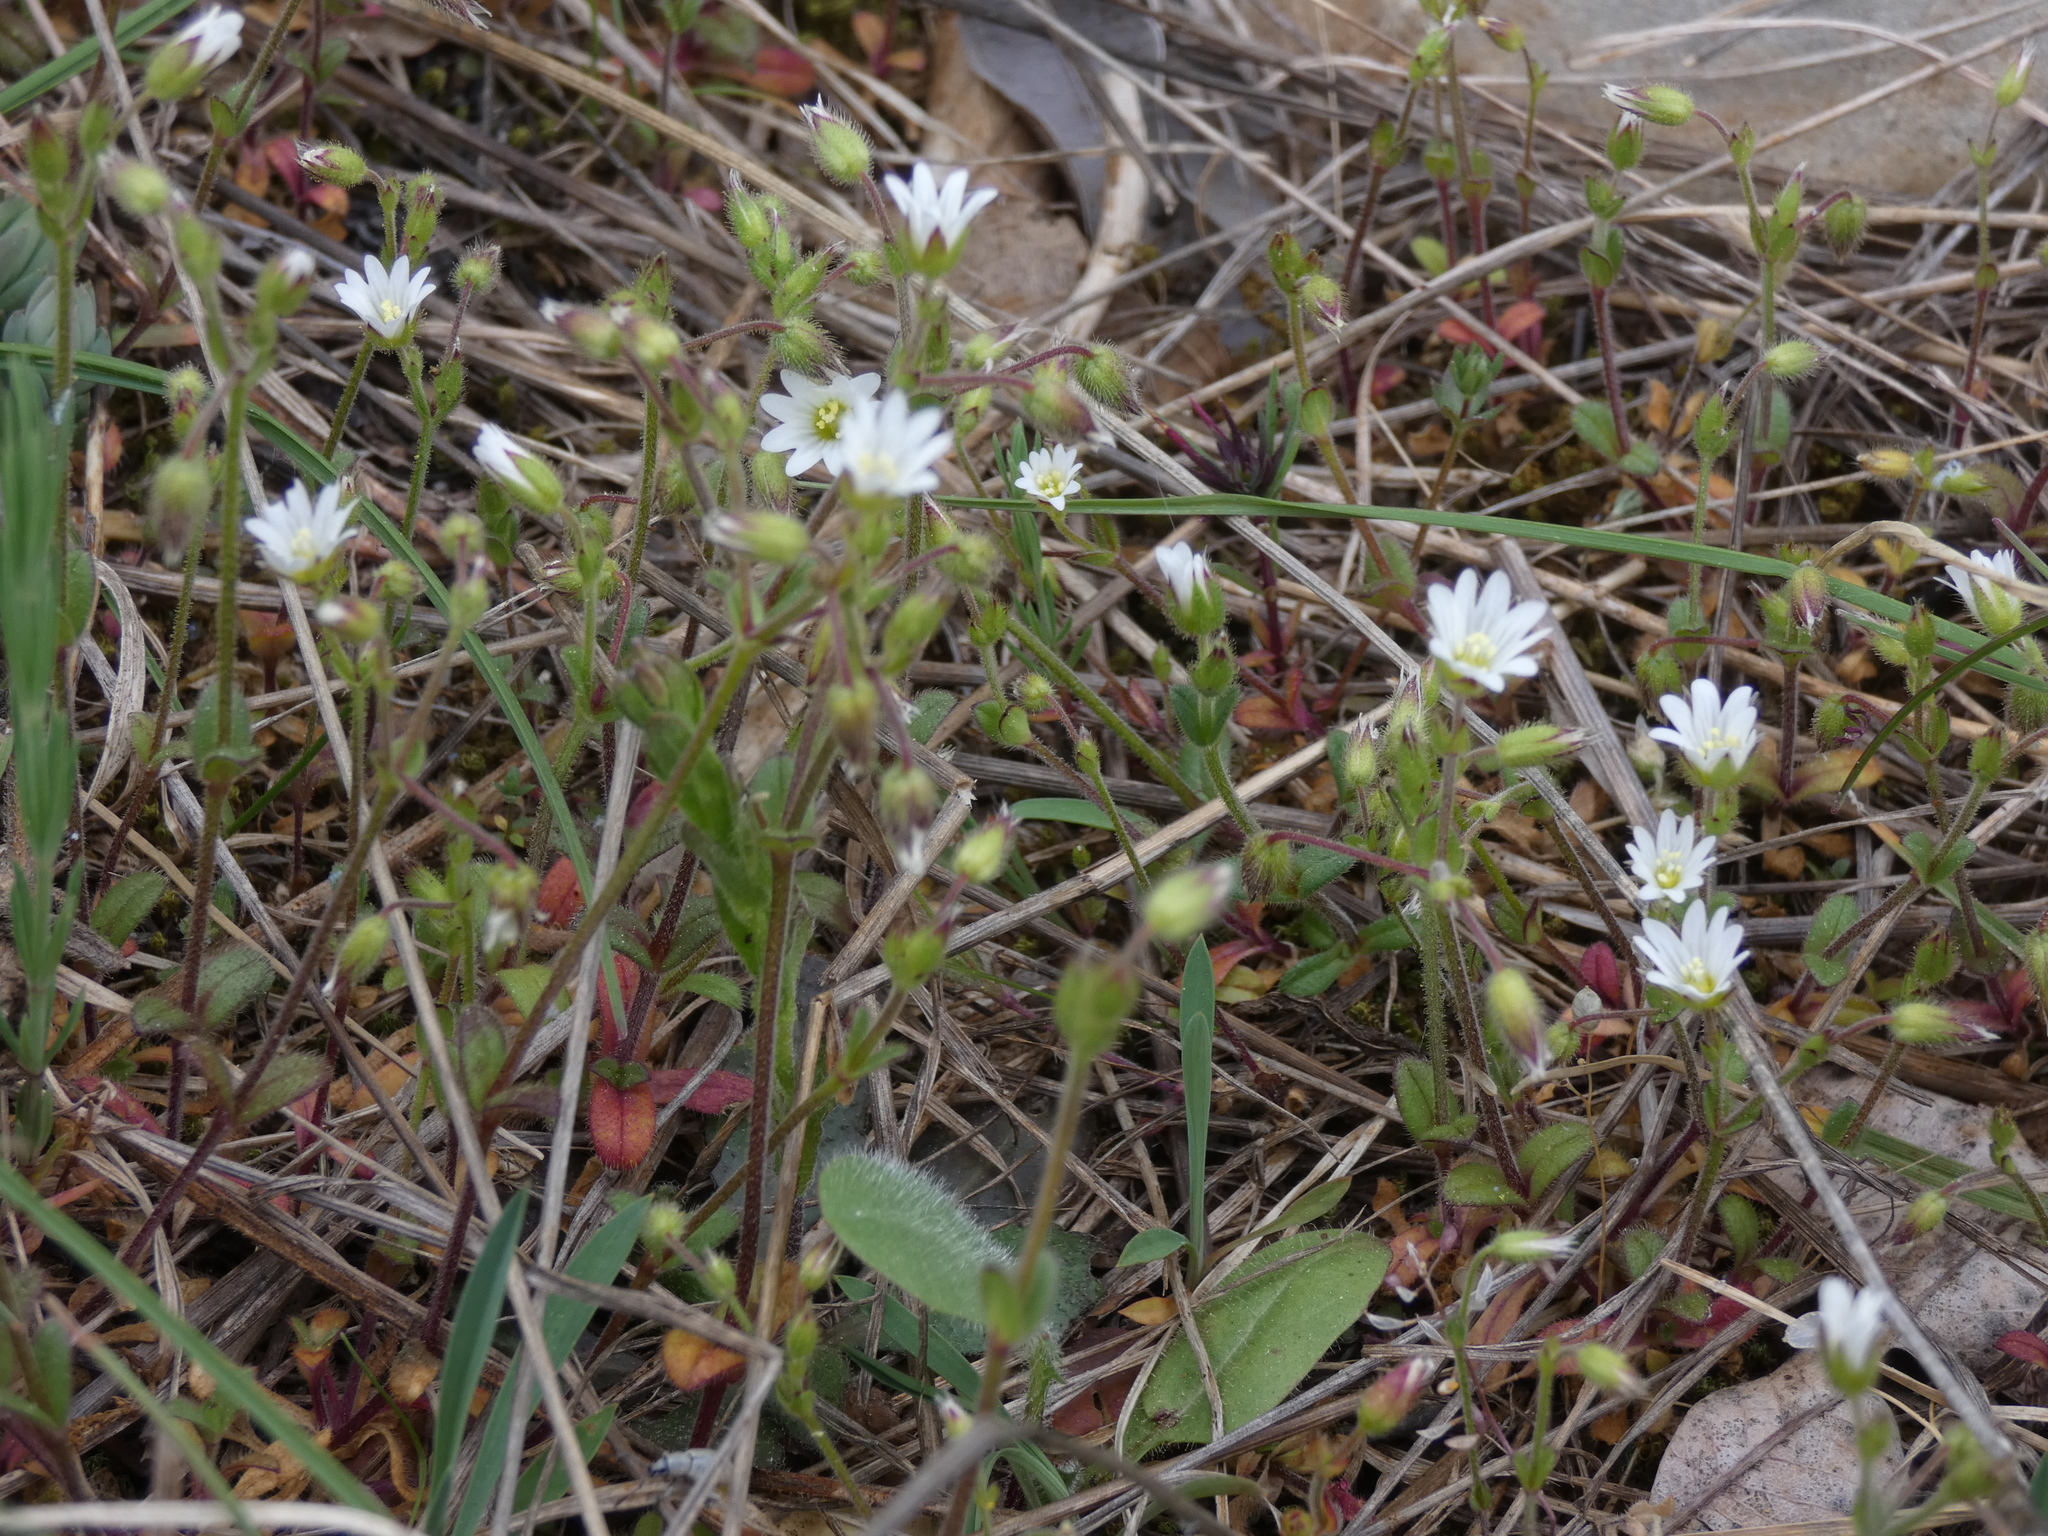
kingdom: Plantae
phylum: Tracheophyta
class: Magnoliopsida
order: Caryophyllales
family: Caryophyllaceae
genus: Cerastium
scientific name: Cerastium pumilum
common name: Dwarf mouse-ear
